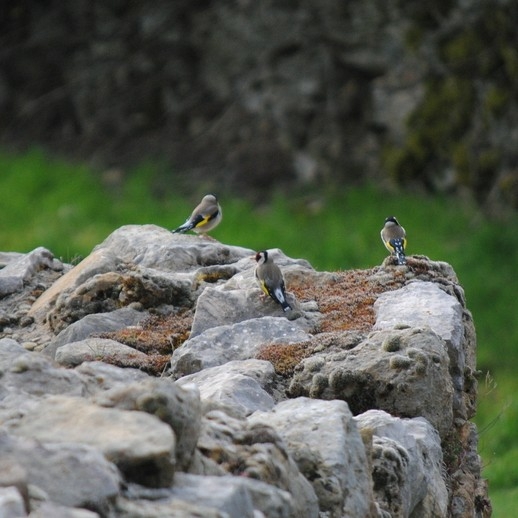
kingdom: Animalia
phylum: Chordata
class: Aves
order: Passeriformes
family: Fringillidae
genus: Carduelis
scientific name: Carduelis carduelis
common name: European goldfinch
